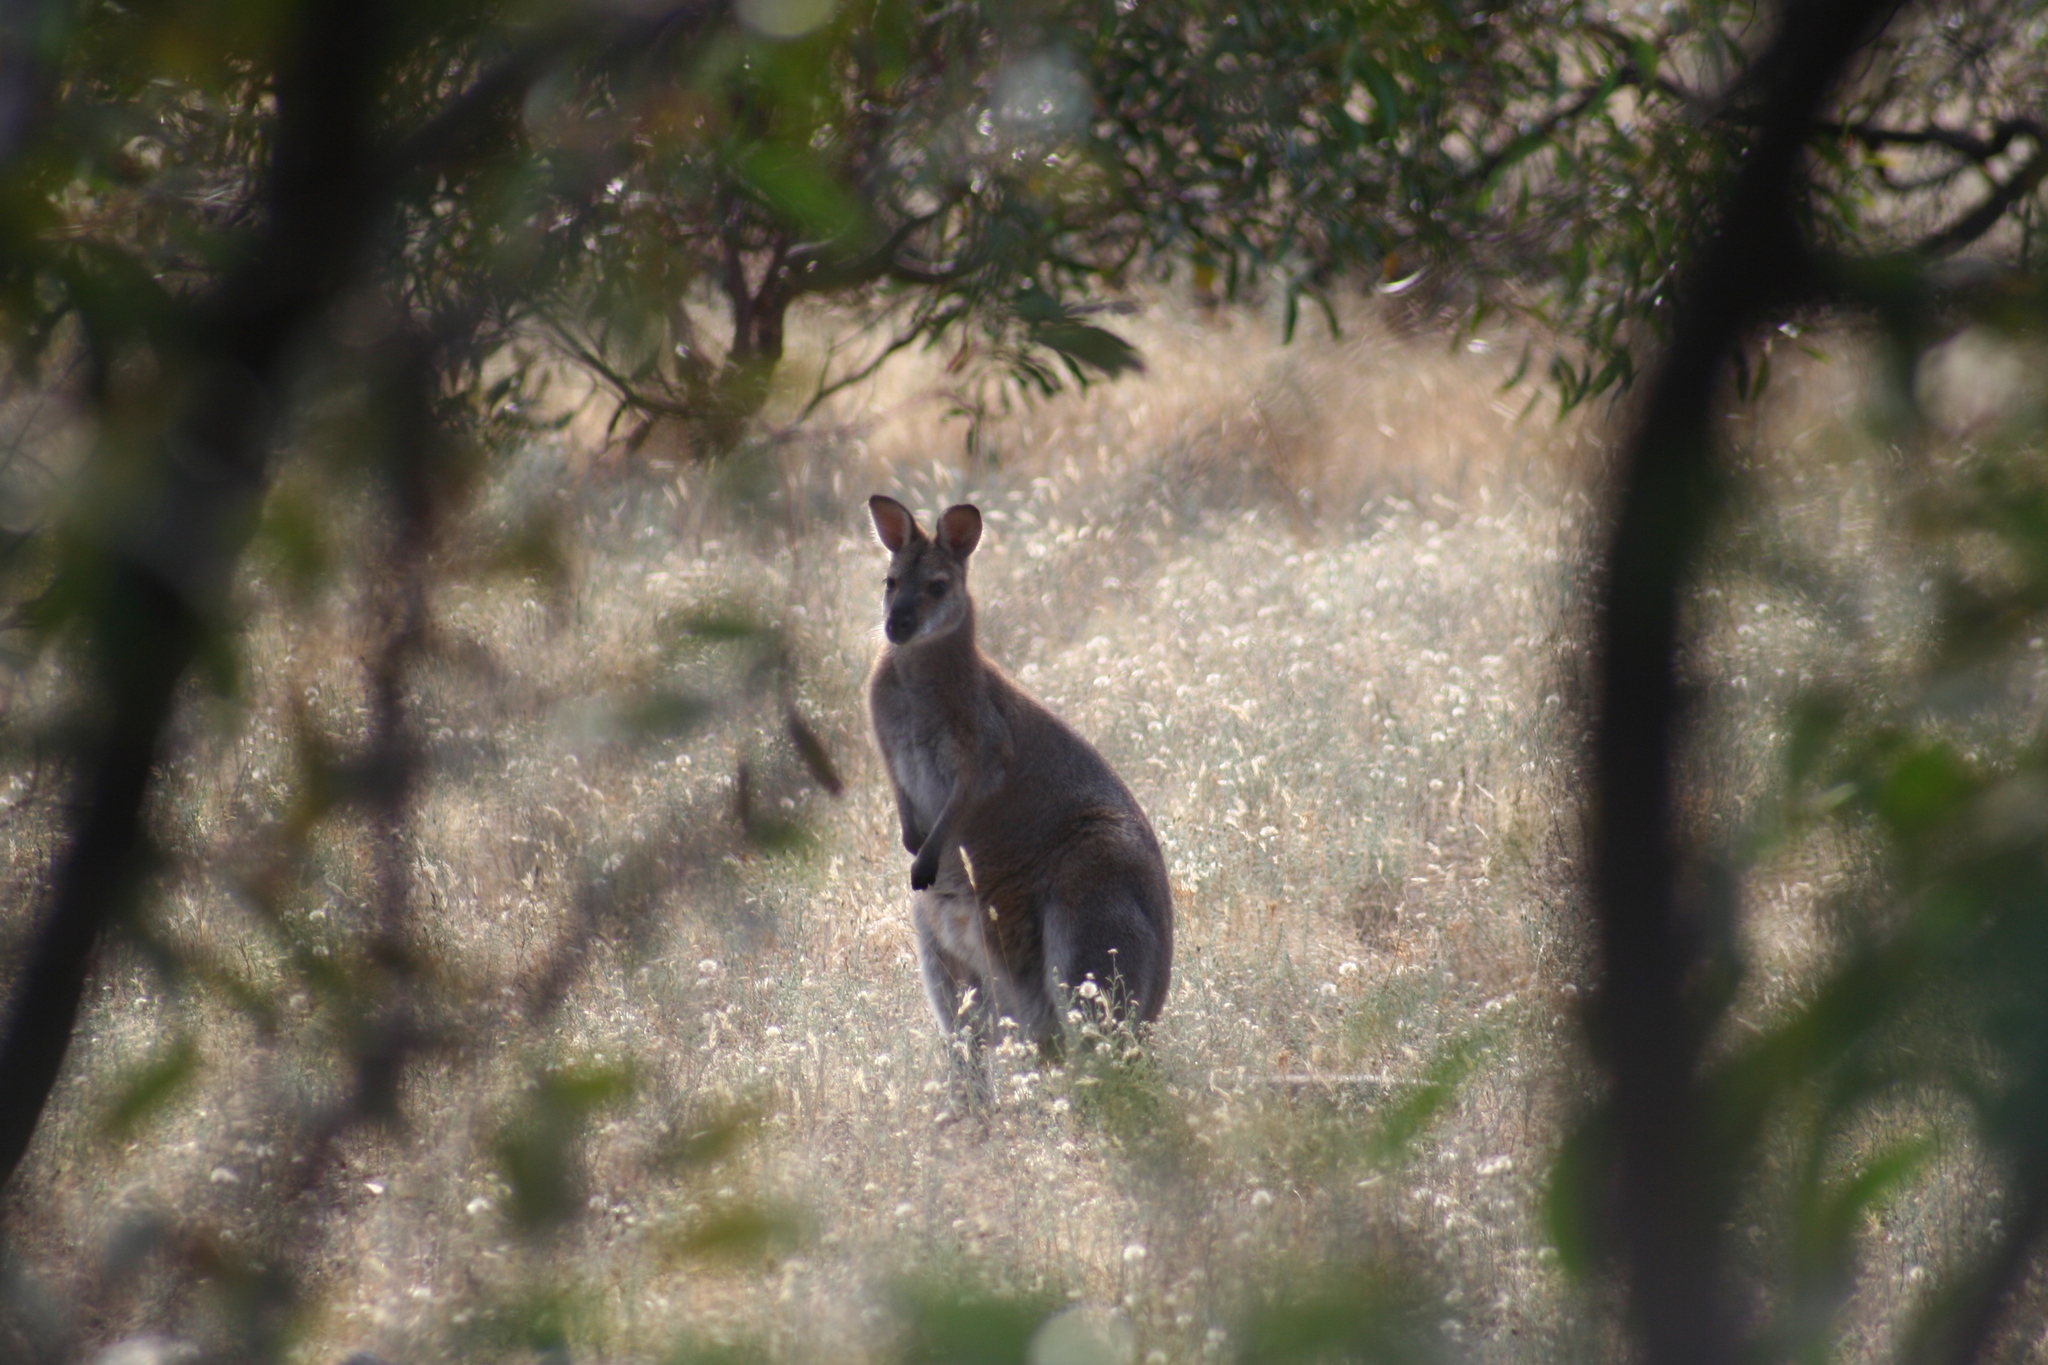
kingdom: Animalia
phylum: Chordata
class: Mammalia
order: Diprotodontia
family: Macropodidae
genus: Notamacropus
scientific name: Notamacropus rufogriseus
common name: Red-necked wallaby
